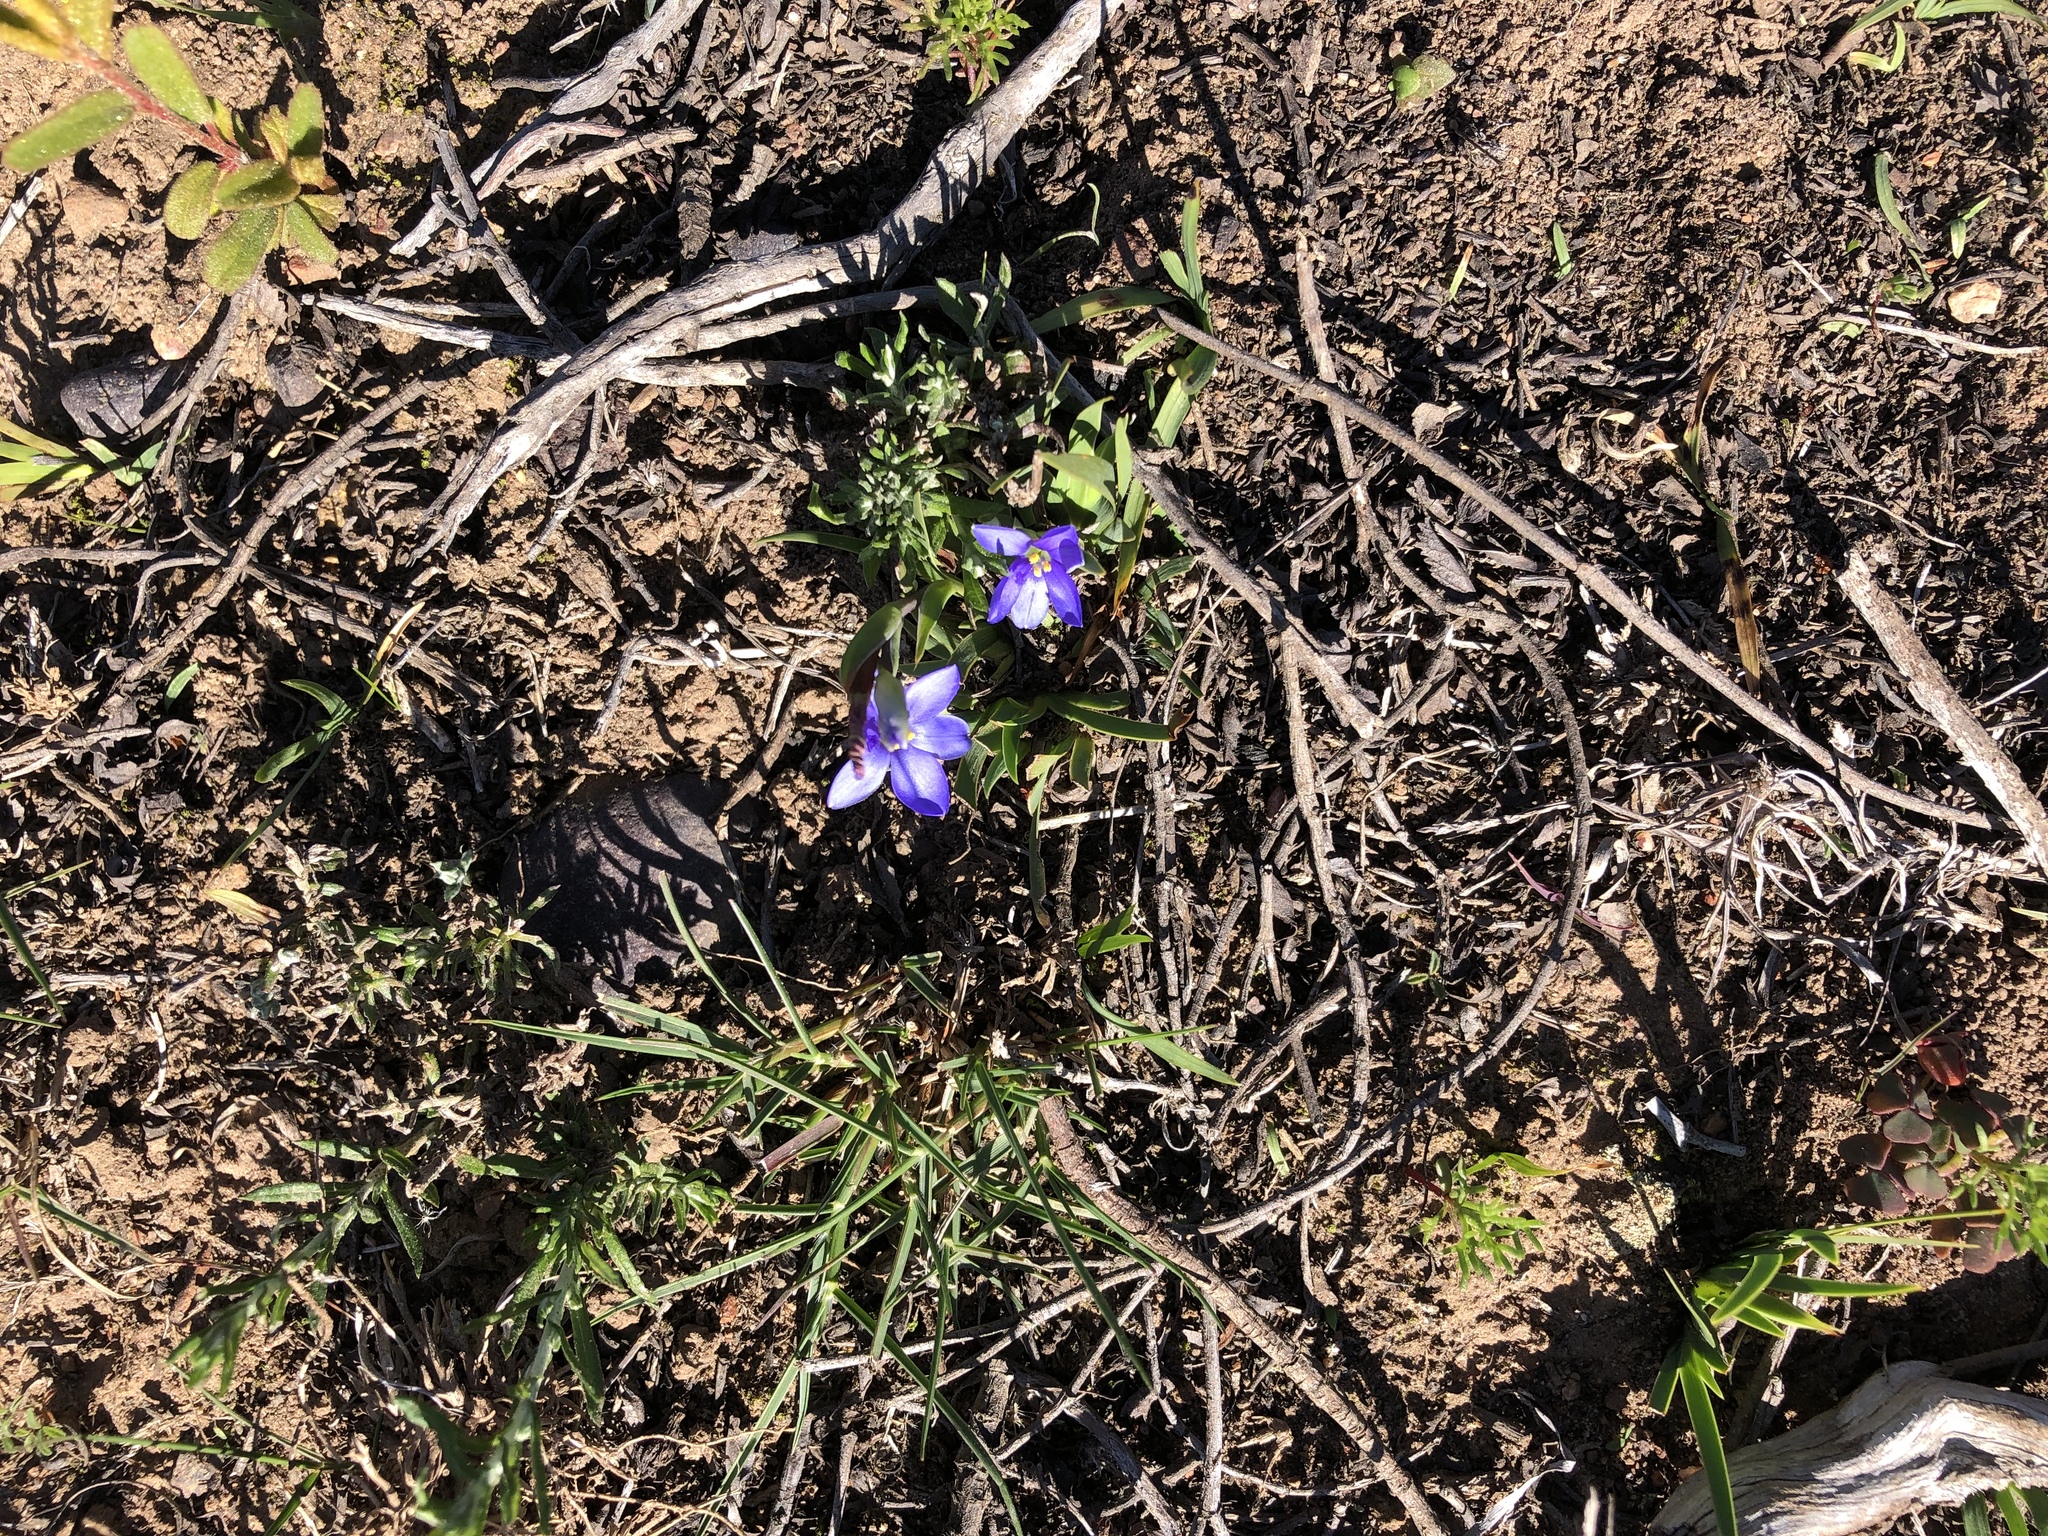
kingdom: Plantae
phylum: Tracheophyta
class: Liliopsida
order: Asparagales
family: Iridaceae
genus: Aristea
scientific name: Aristea pusilla
